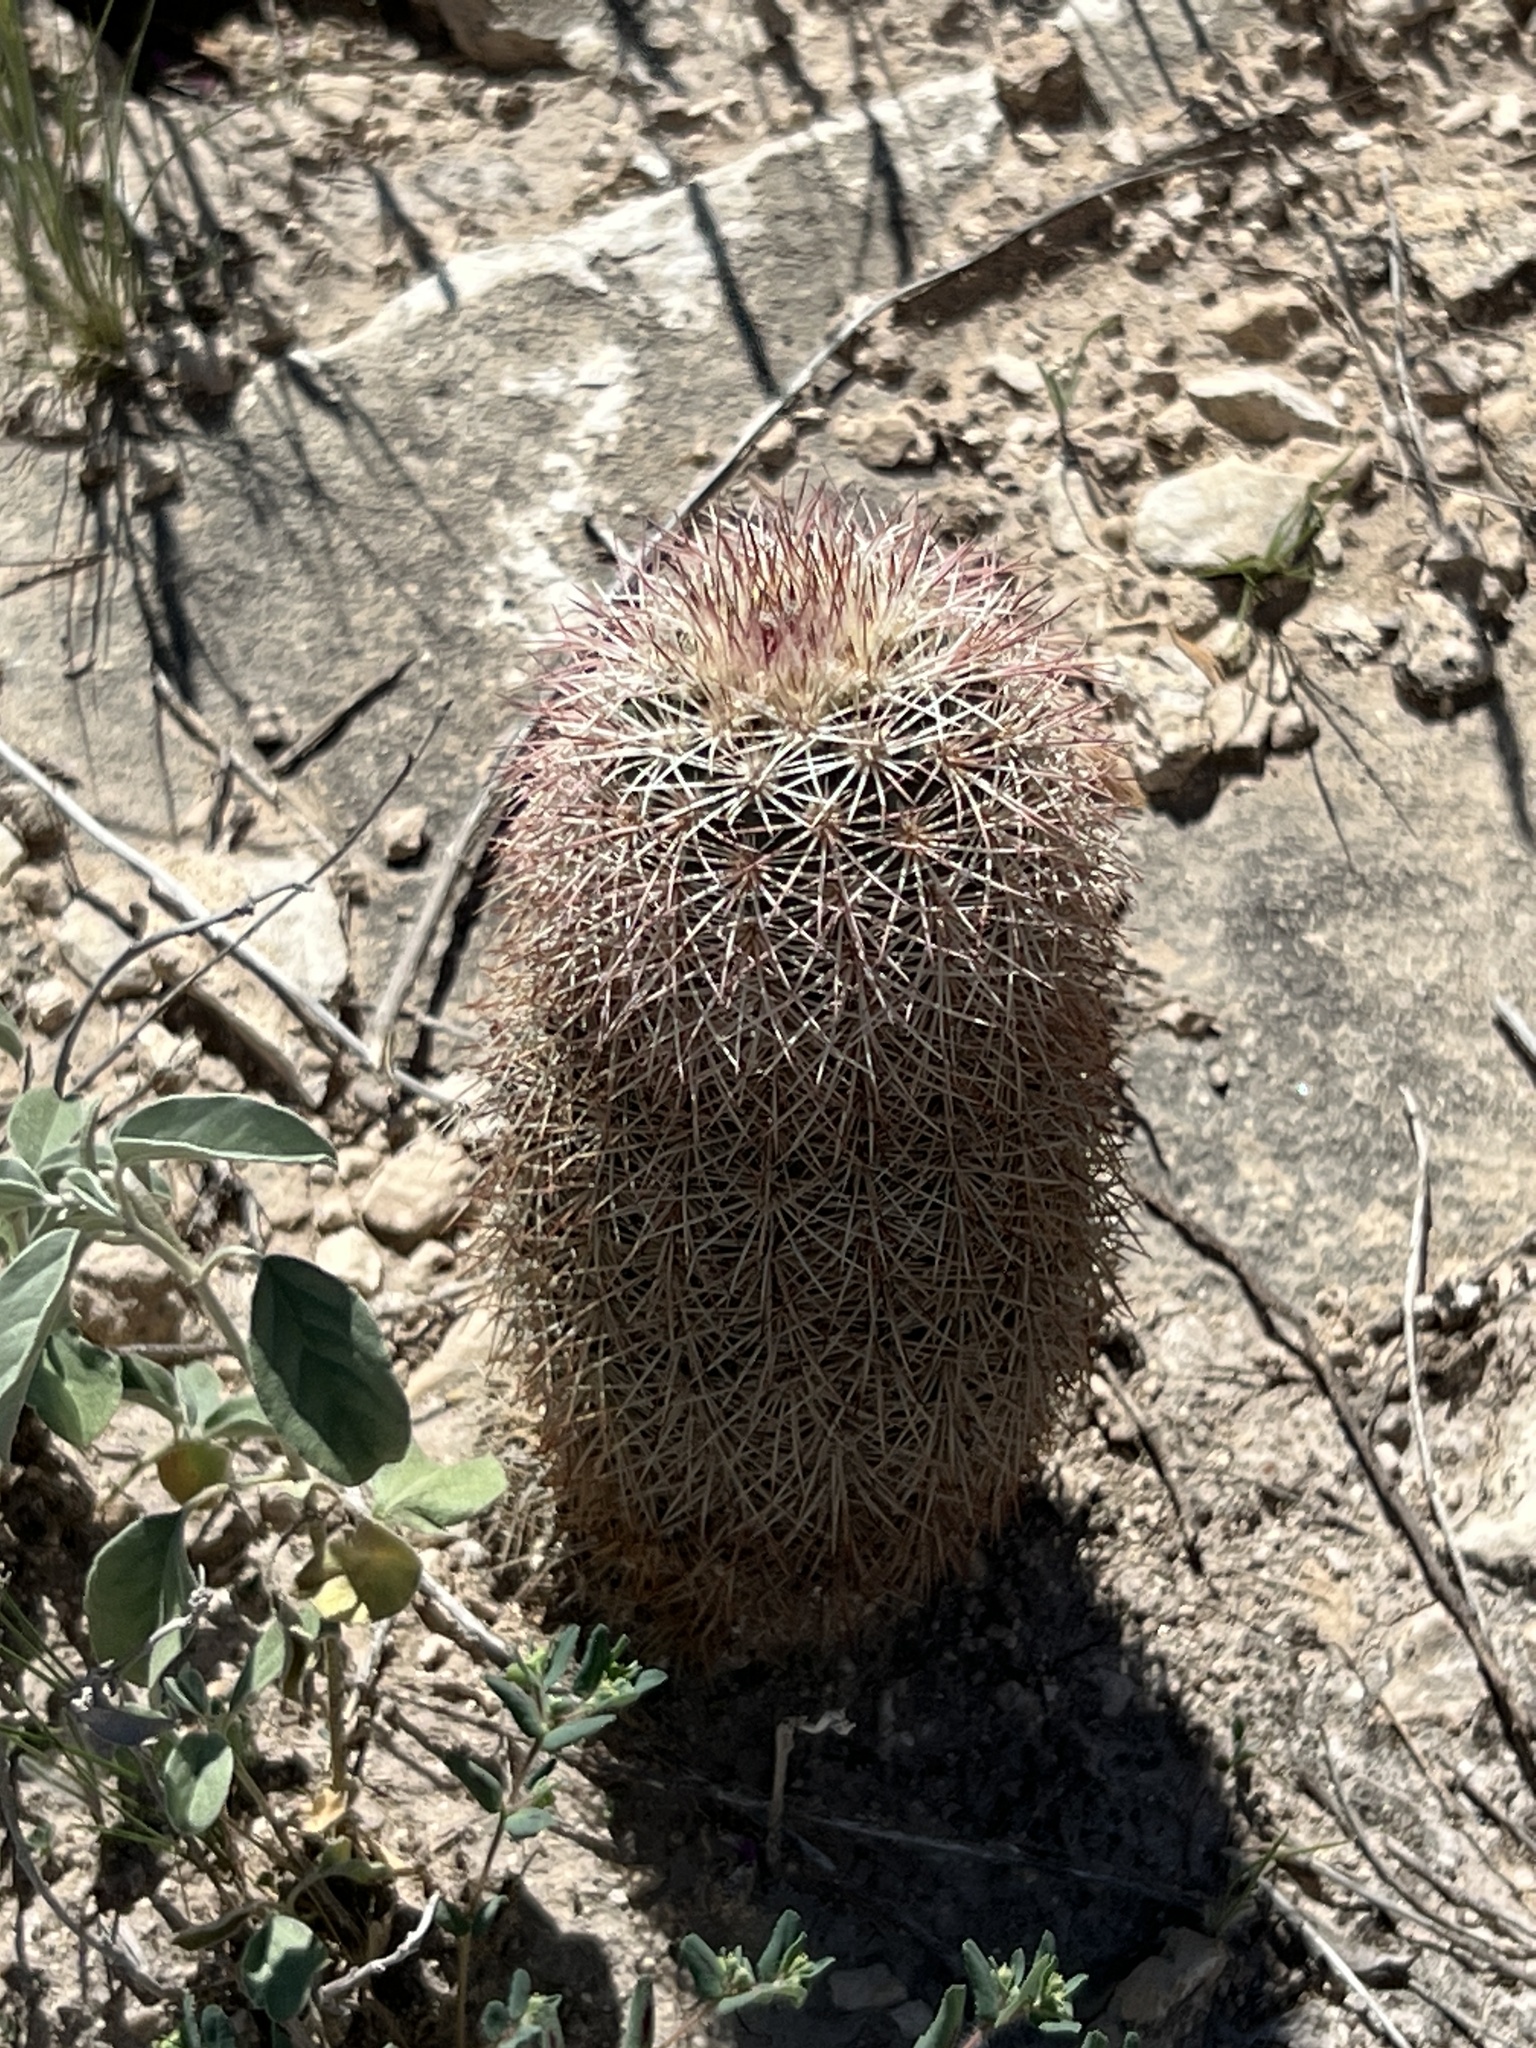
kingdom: Plantae
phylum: Tracheophyta
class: Magnoliopsida
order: Caryophyllales
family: Cactaceae
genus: Echinocereus
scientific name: Echinocereus dasyacanthus
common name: Spiny hedgehog cactus
